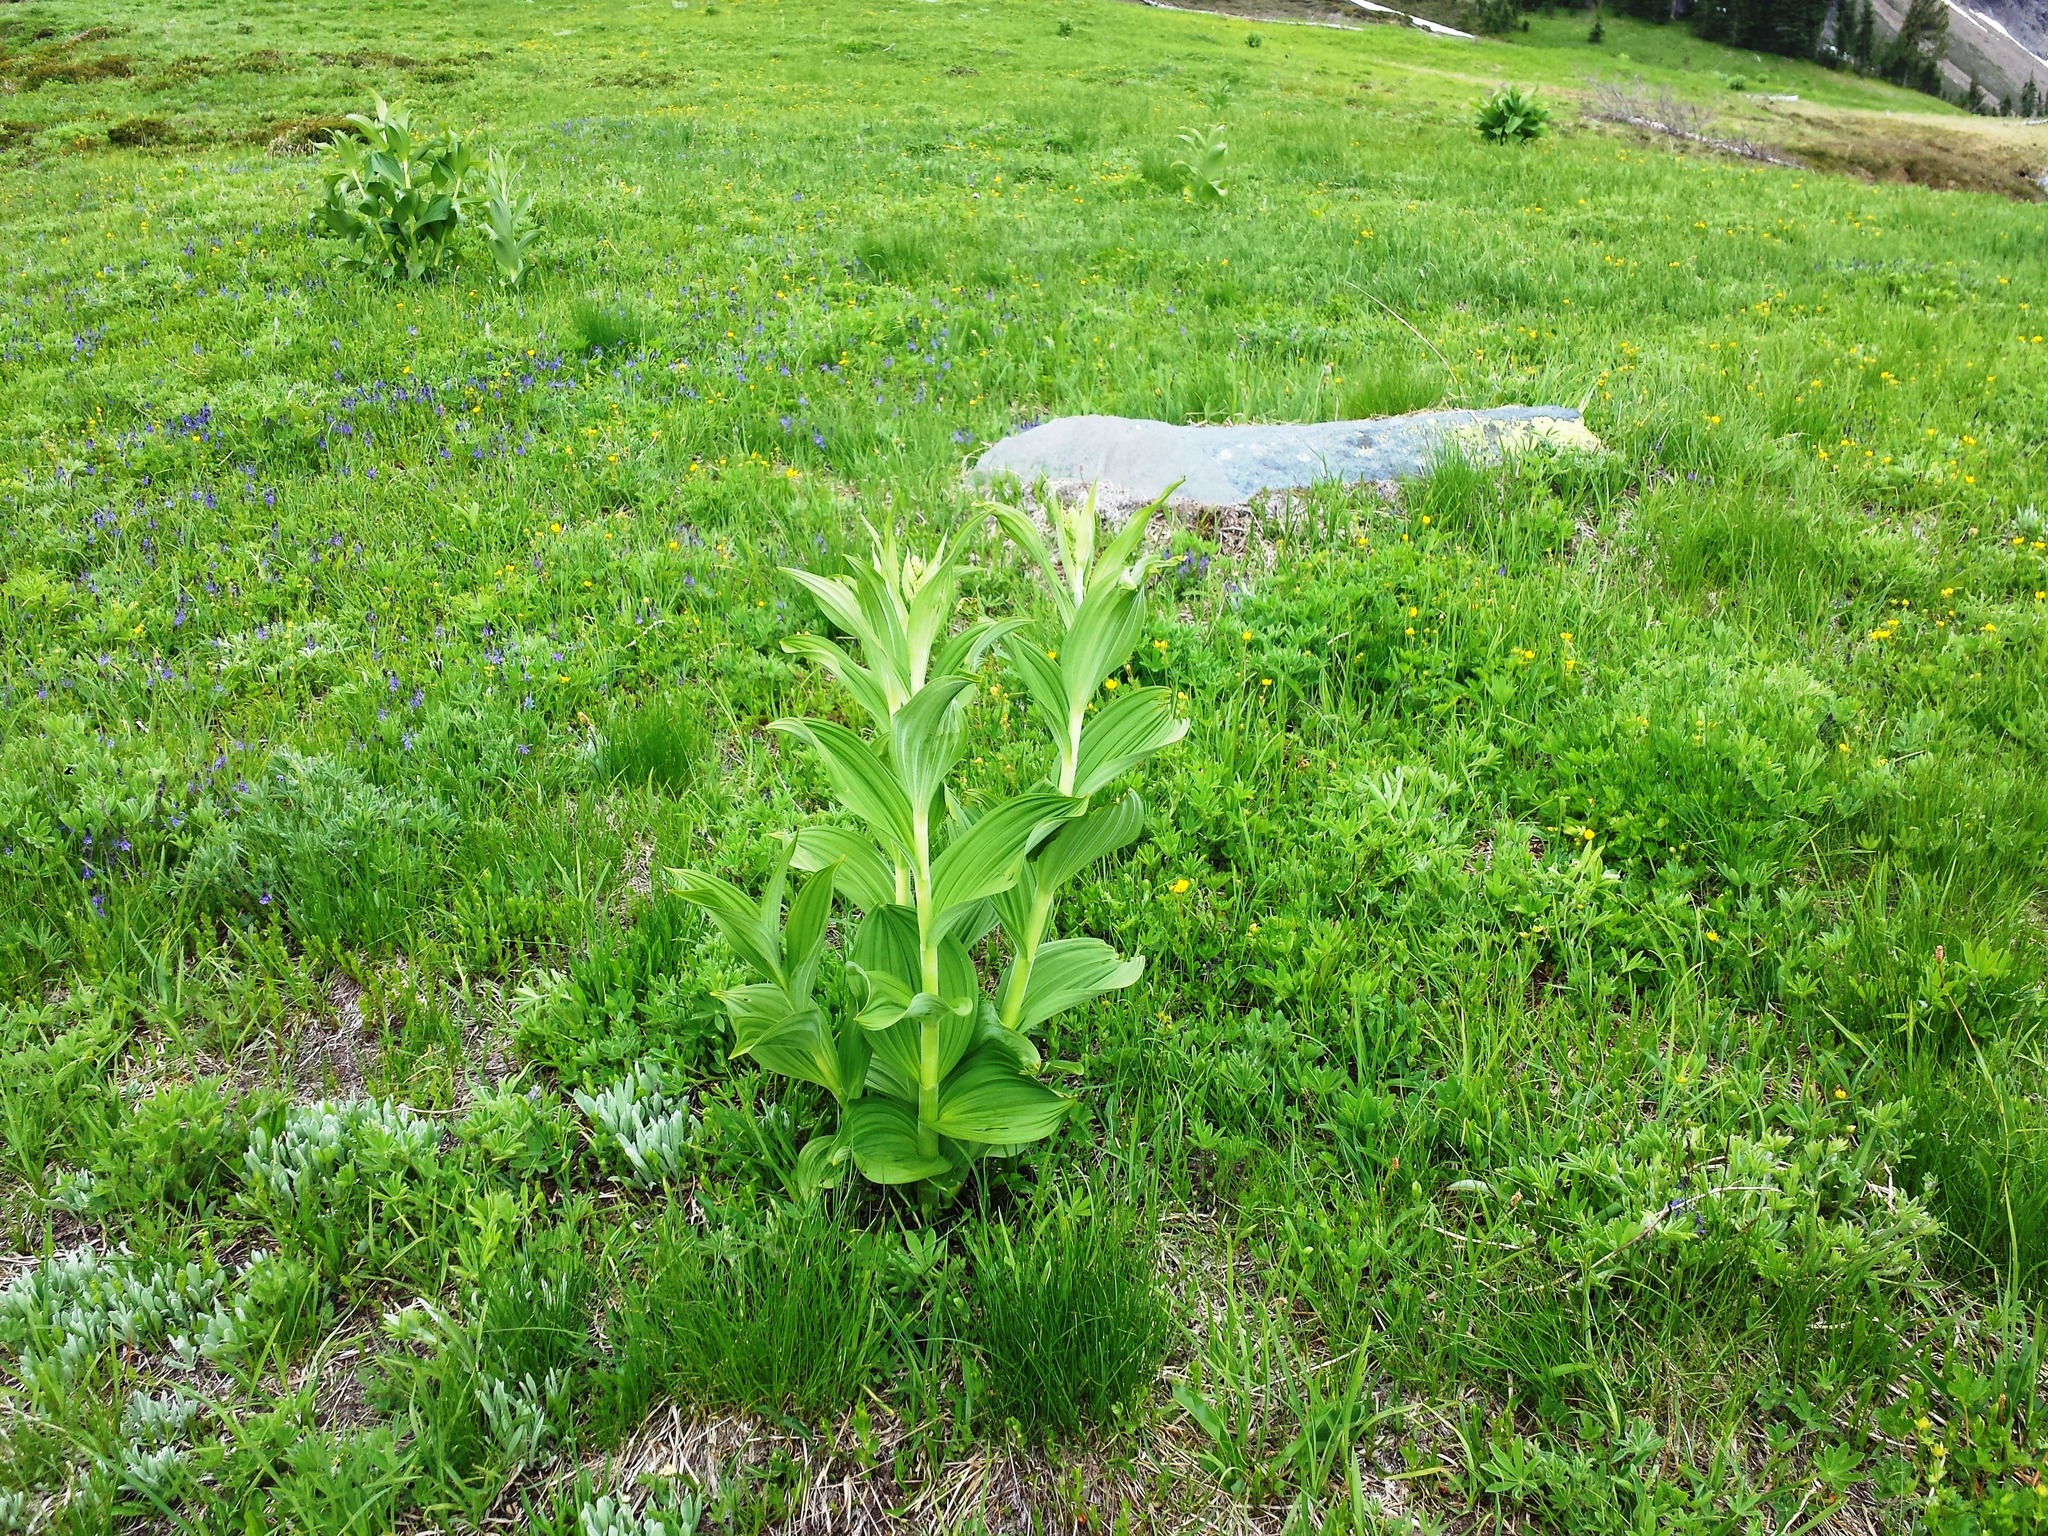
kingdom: Plantae
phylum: Tracheophyta
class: Liliopsida
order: Liliales
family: Melanthiaceae
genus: Veratrum
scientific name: Veratrum viride
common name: American false hellebore
